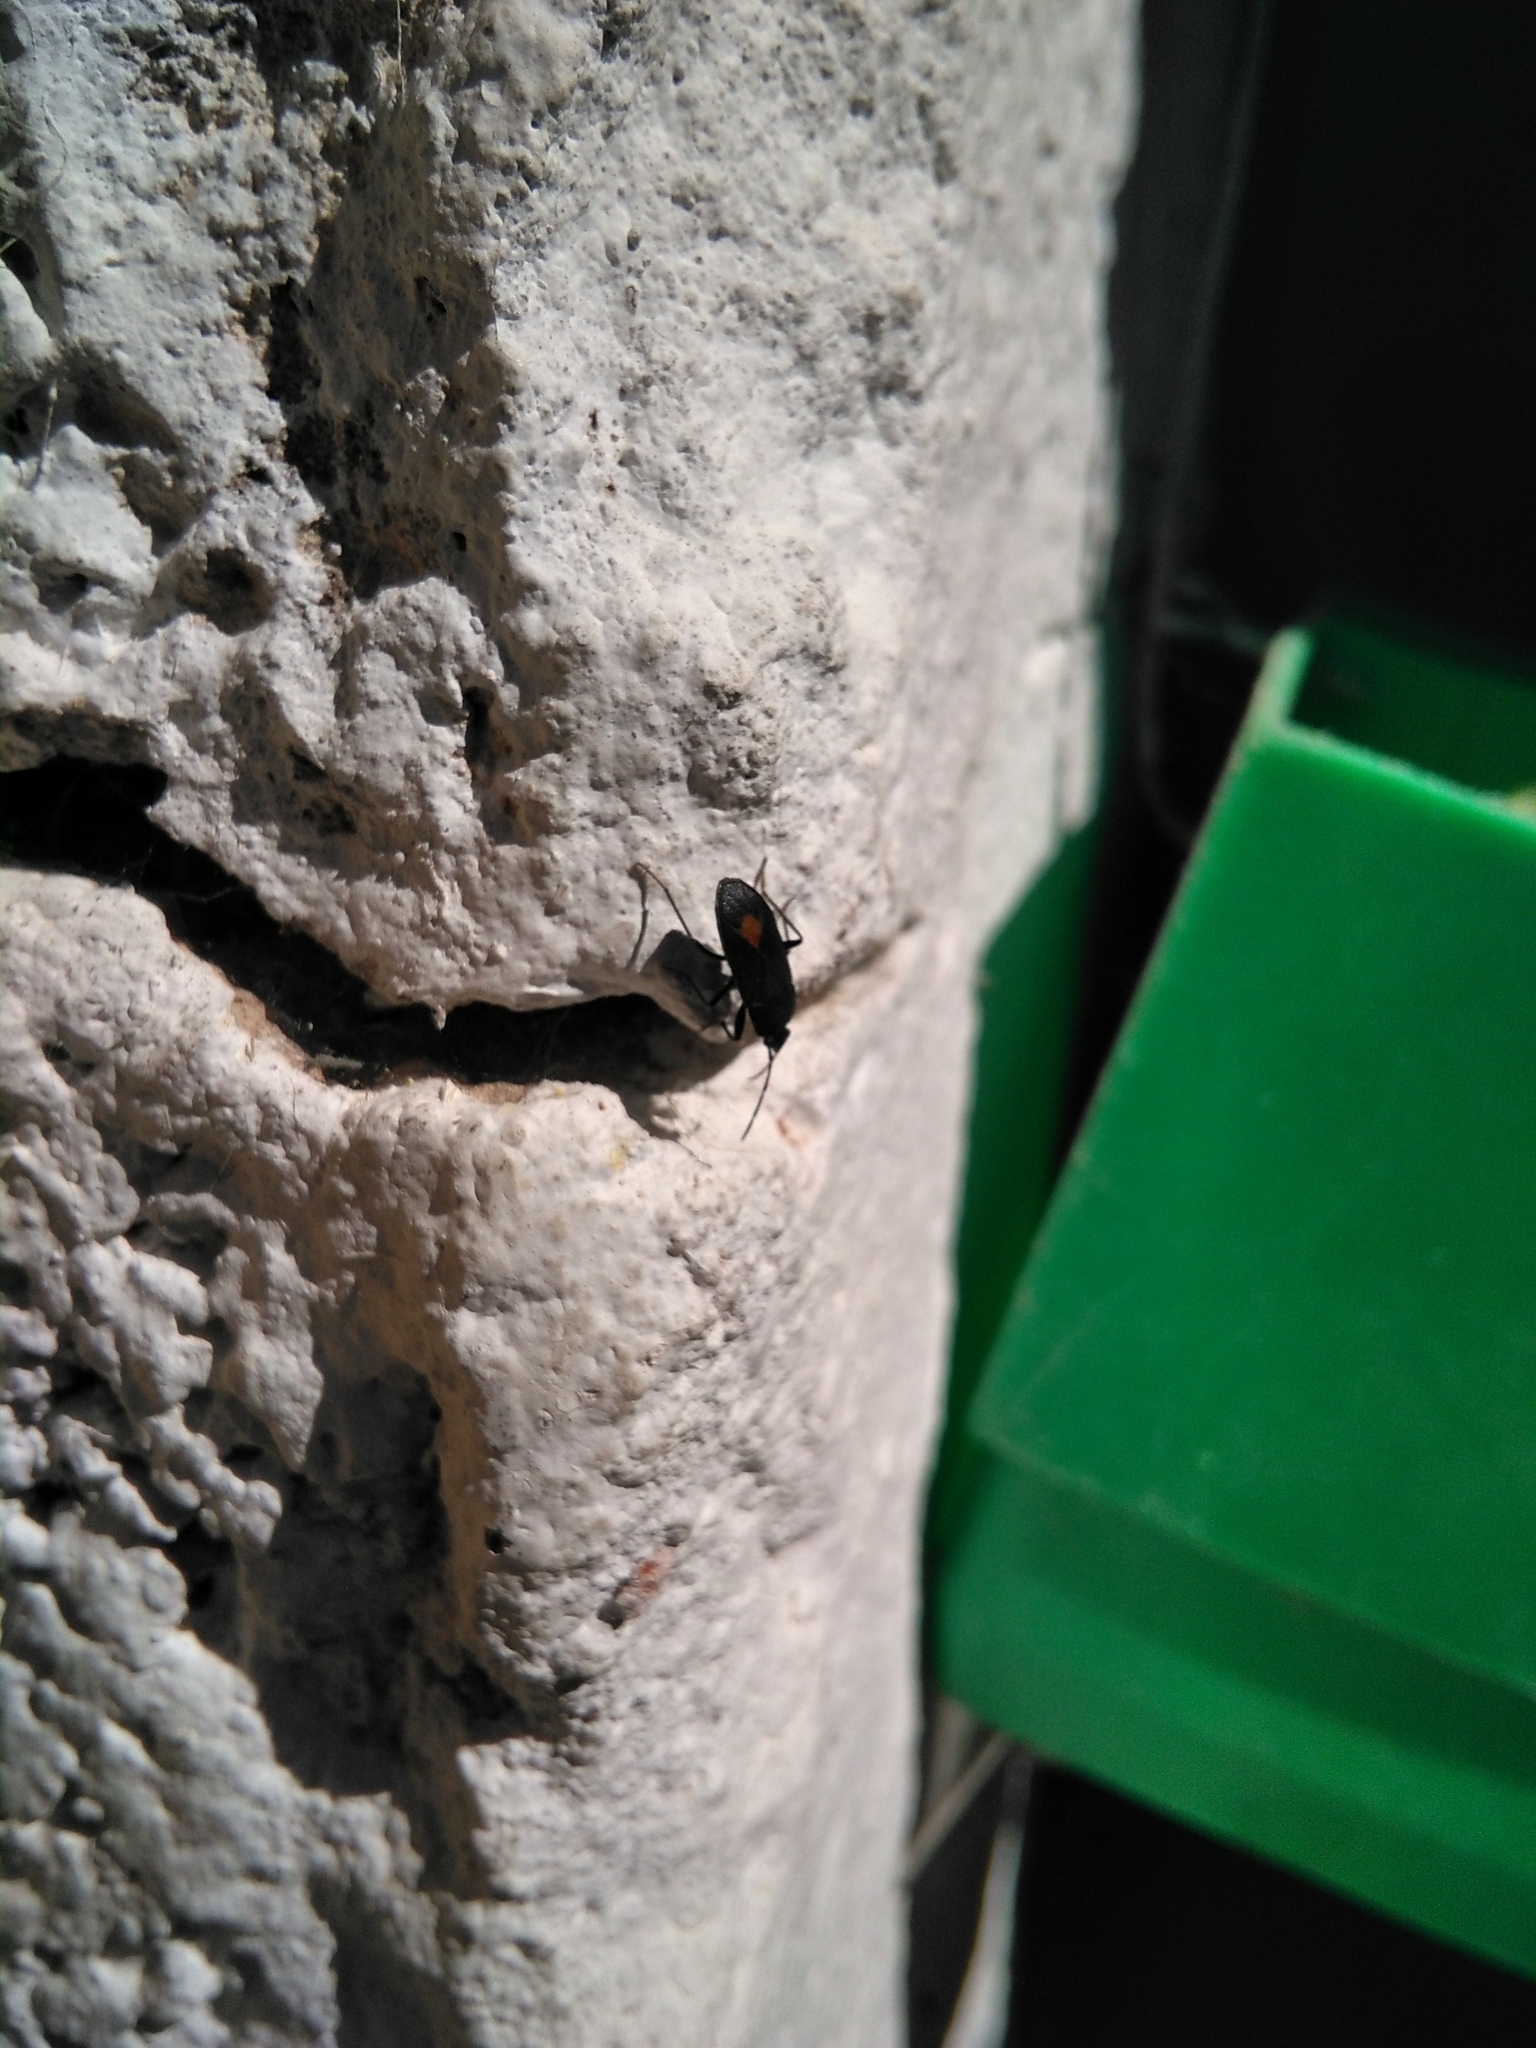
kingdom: Animalia
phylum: Arthropoda
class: Insecta
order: Hemiptera
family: Rhyparochromidae
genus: Aphanus
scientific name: Aphanus rolandri
